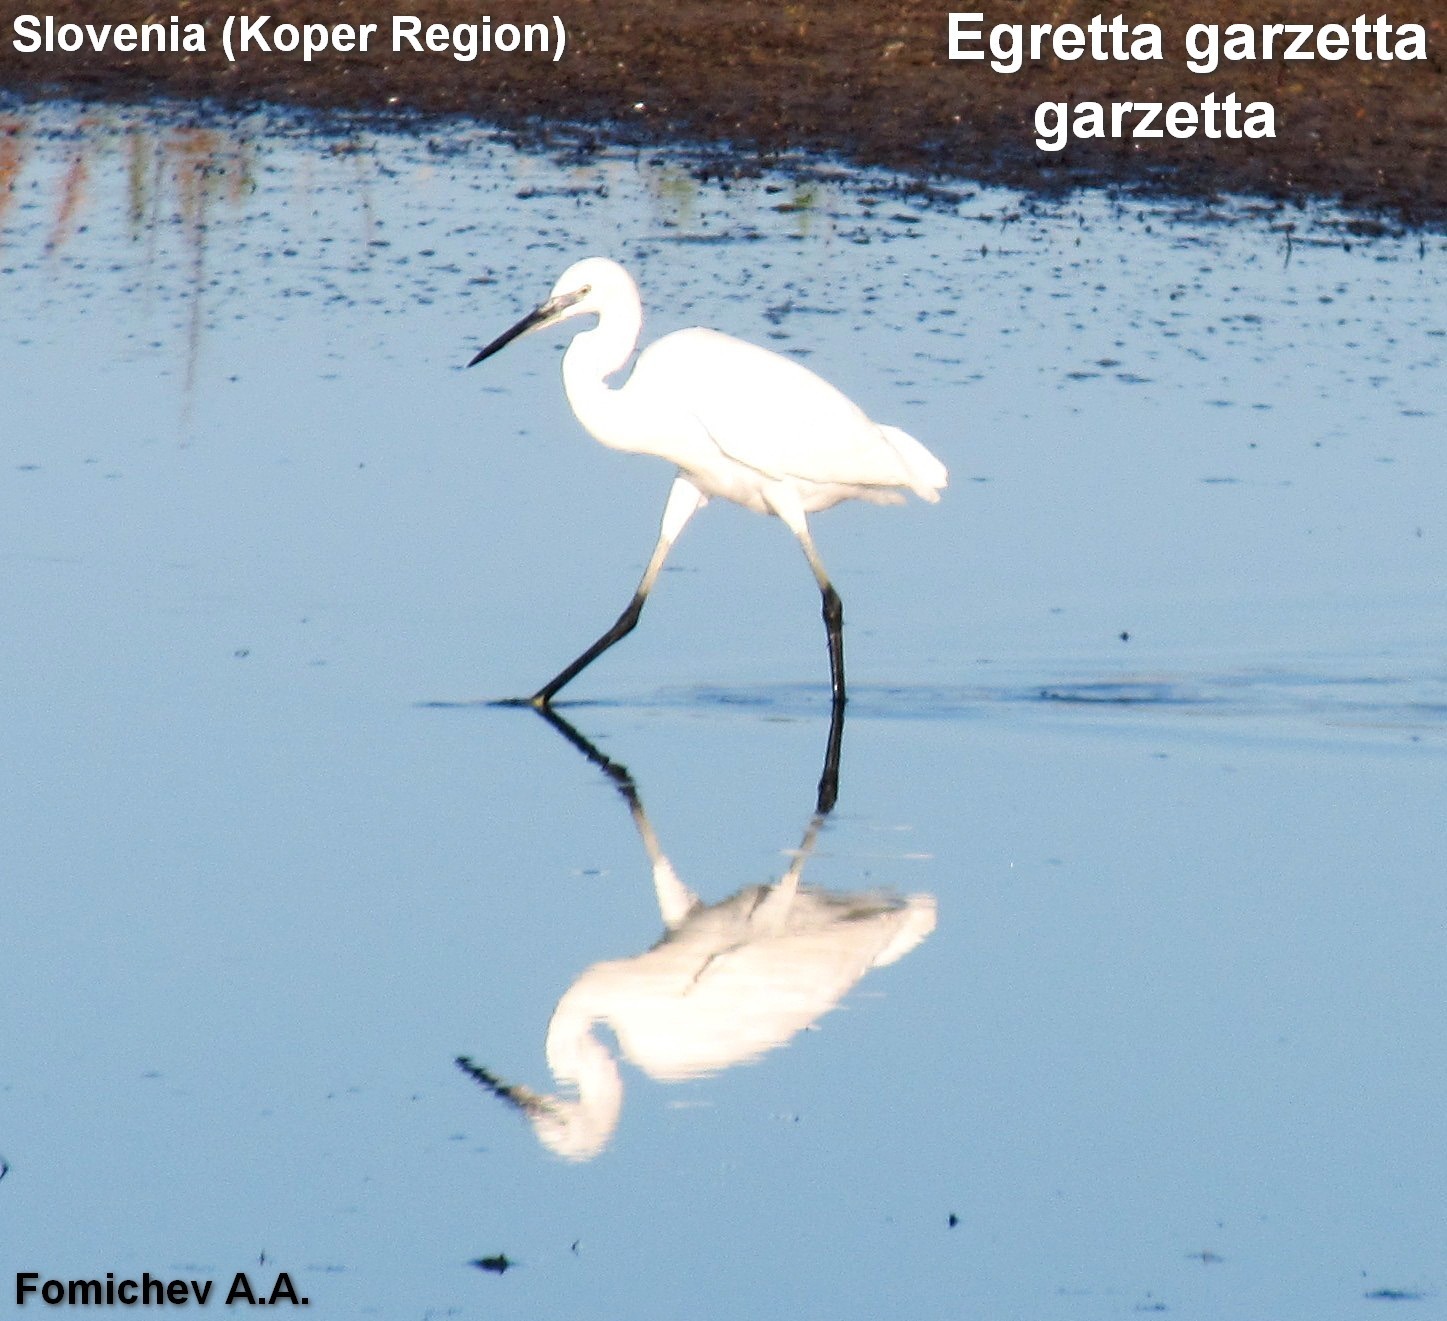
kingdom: Animalia
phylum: Chordata
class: Aves
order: Pelecaniformes
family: Ardeidae
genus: Egretta
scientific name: Egretta garzetta
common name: Little egret
